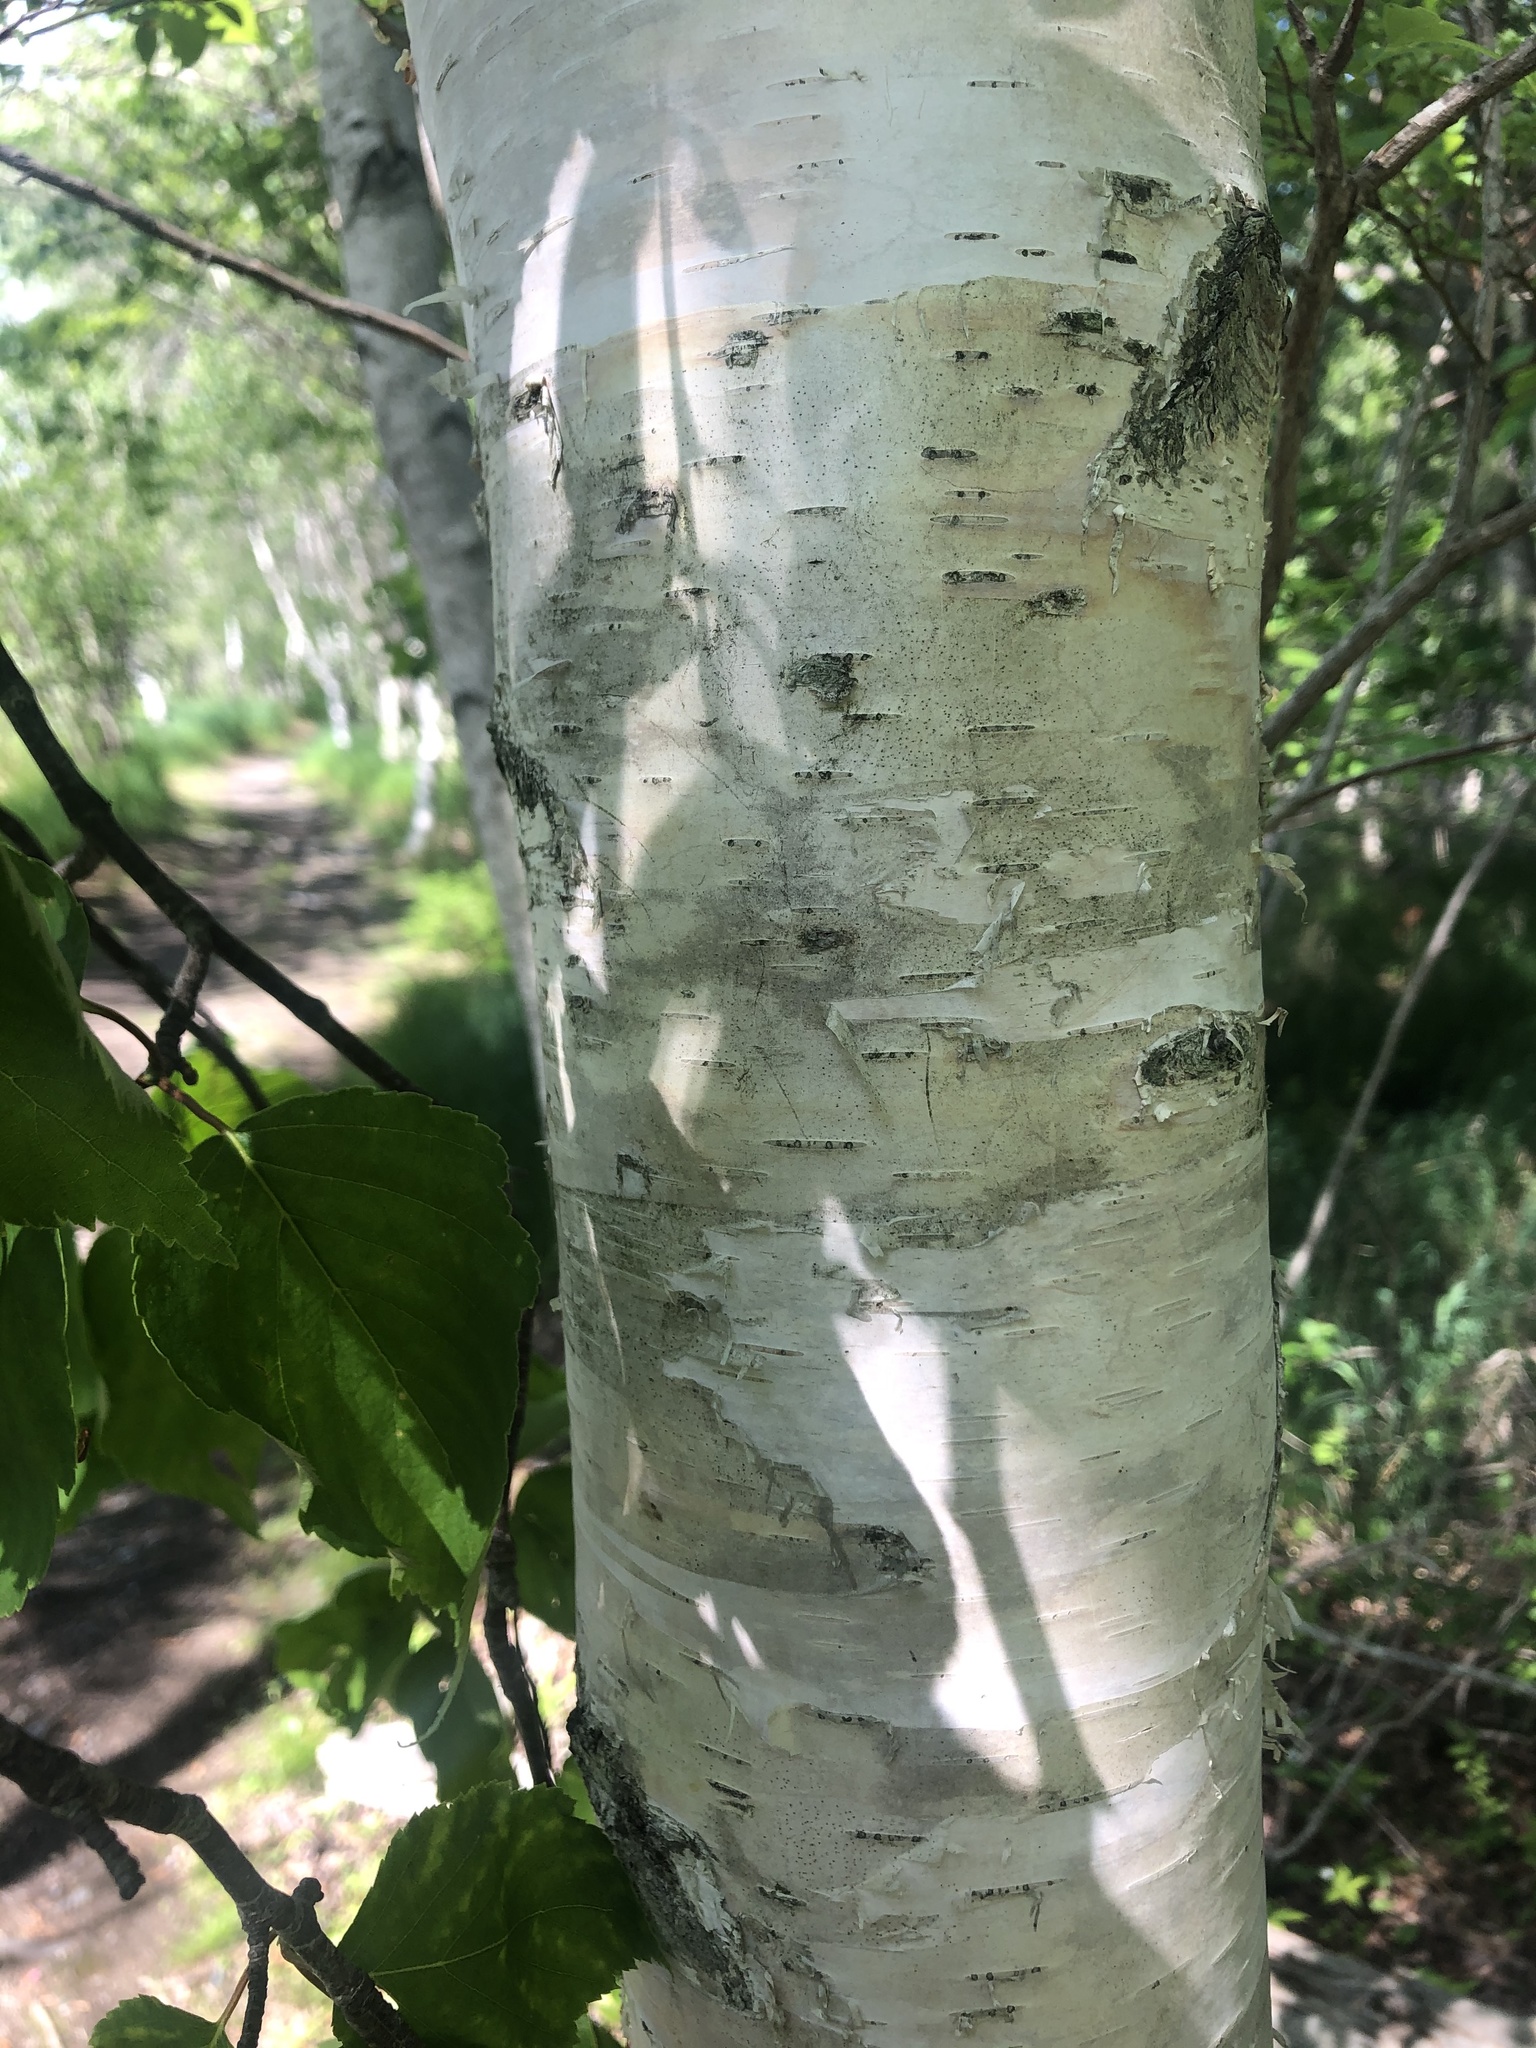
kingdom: Plantae
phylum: Tracheophyta
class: Magnoliopsida
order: Fagales
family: Betulaceae
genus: Betula
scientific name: Betula papyrifera
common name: Paper birch
